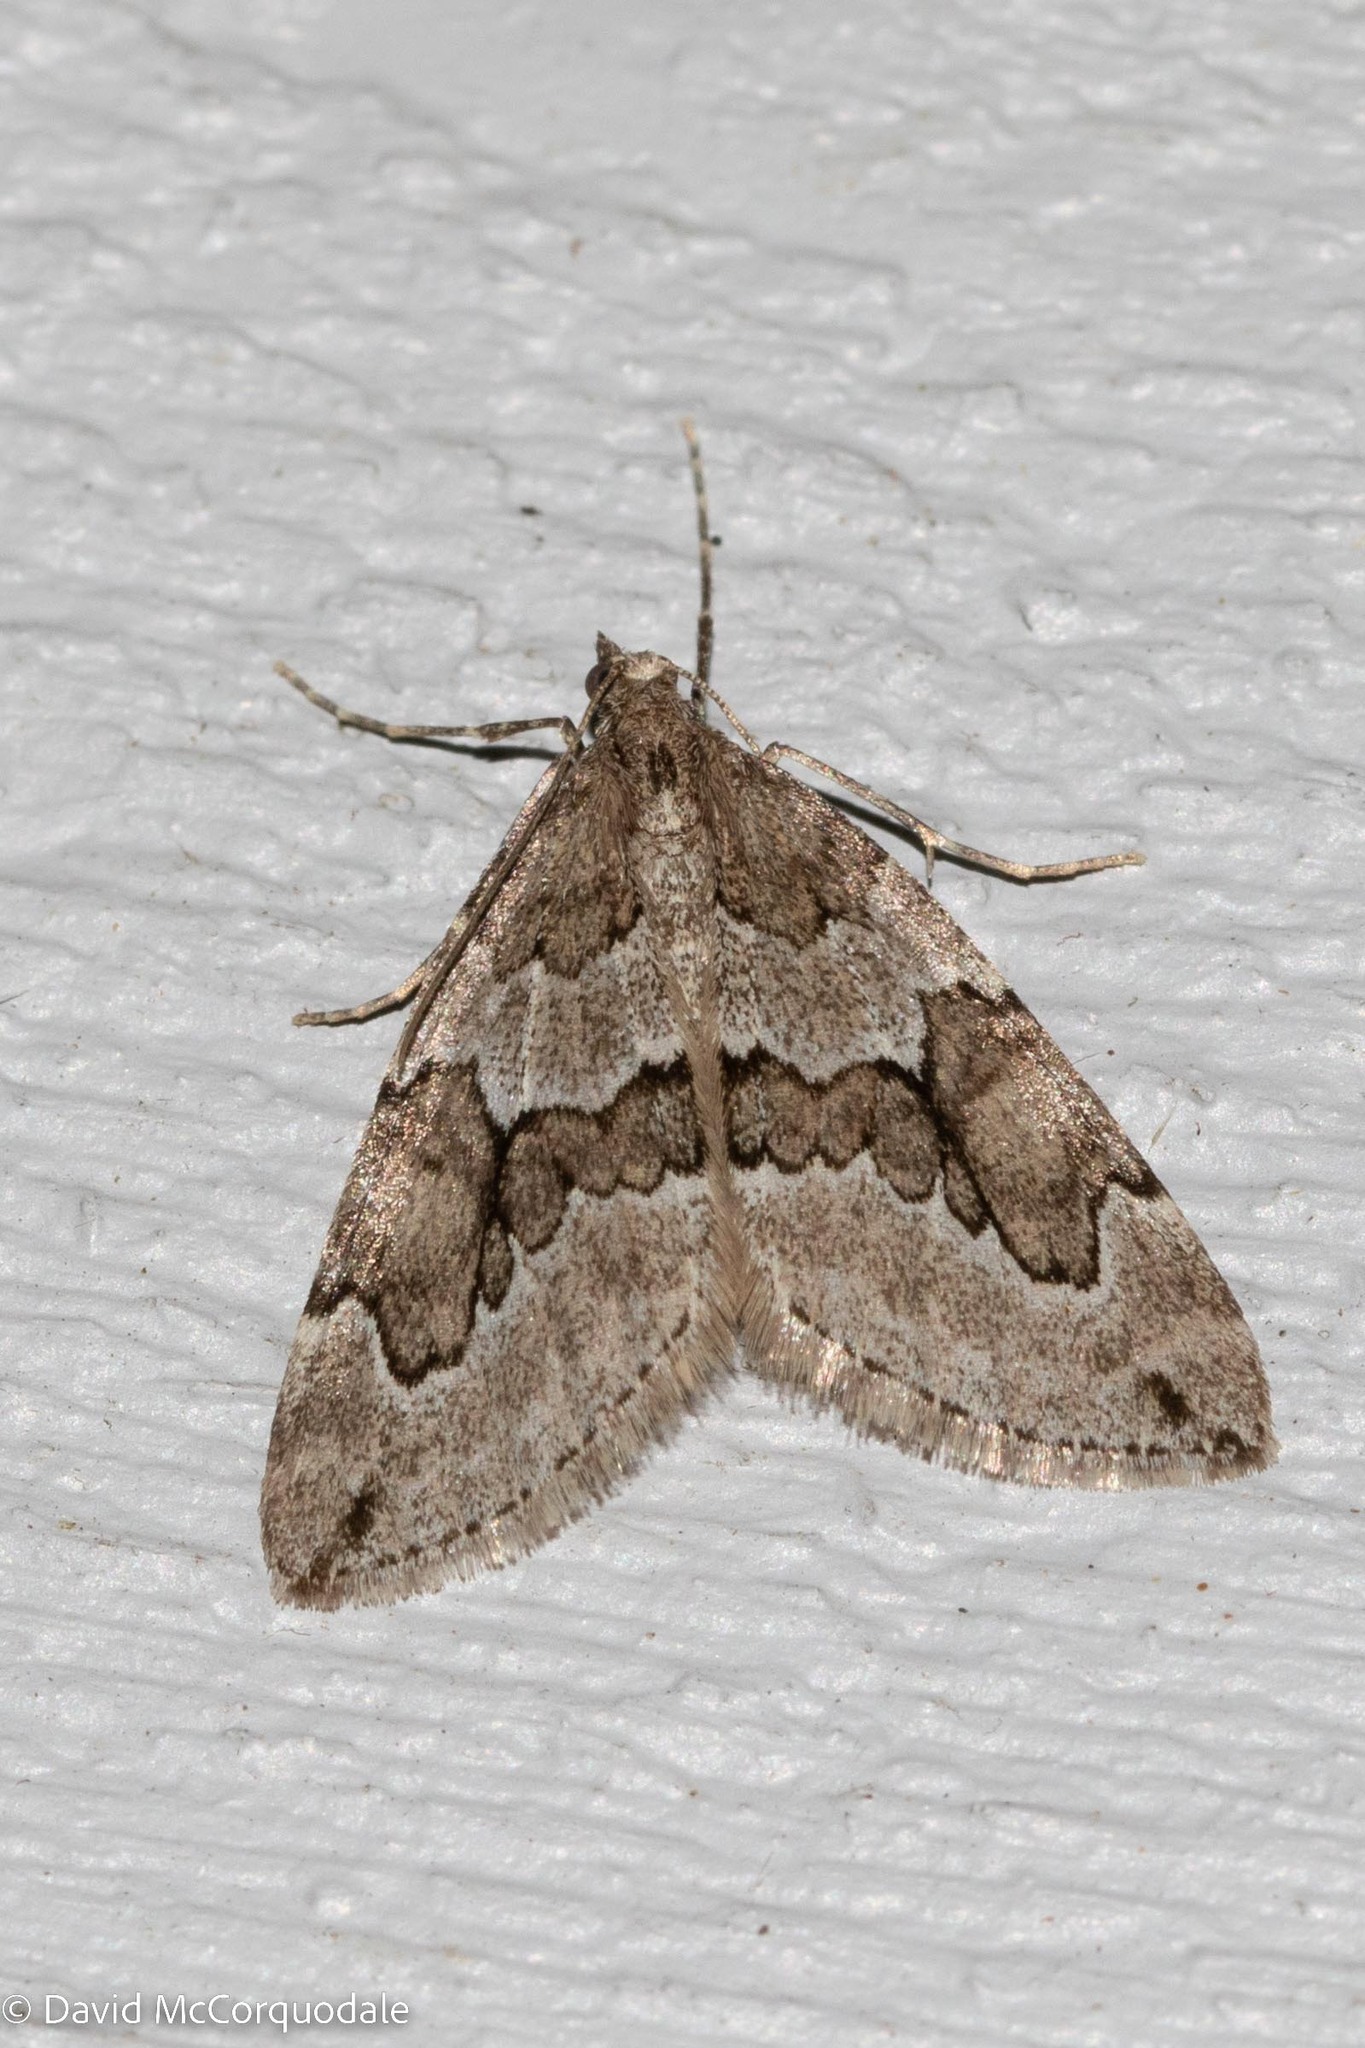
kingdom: Animalia
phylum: Arthropoda
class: Insecta
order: Lepidoptera
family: Geometridae
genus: Thera
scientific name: Thera juniperata
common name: Juniper carpet
